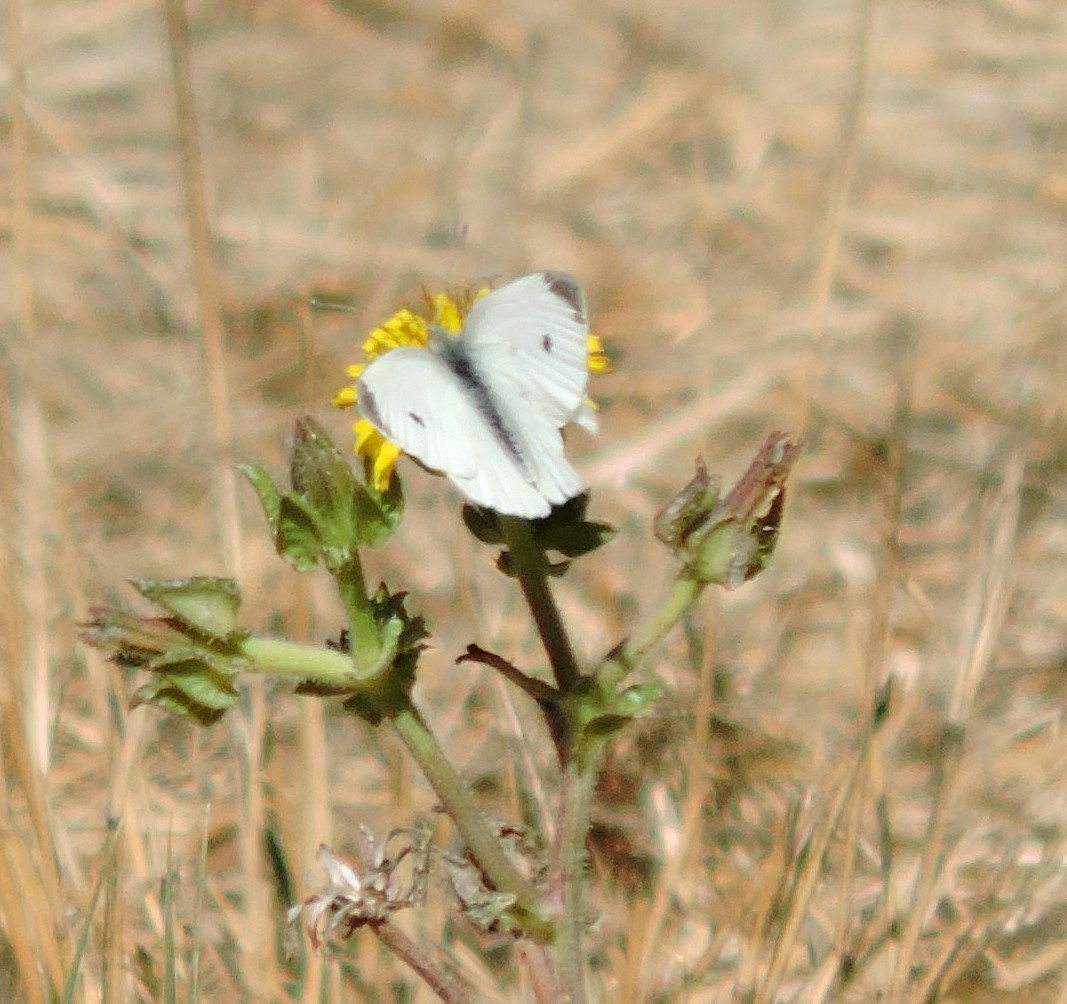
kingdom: Animalia
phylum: Arthropoda
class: Insecta
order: Lepidoptera
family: Pieridae
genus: Pieris
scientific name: Pieris rapae
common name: Small white
